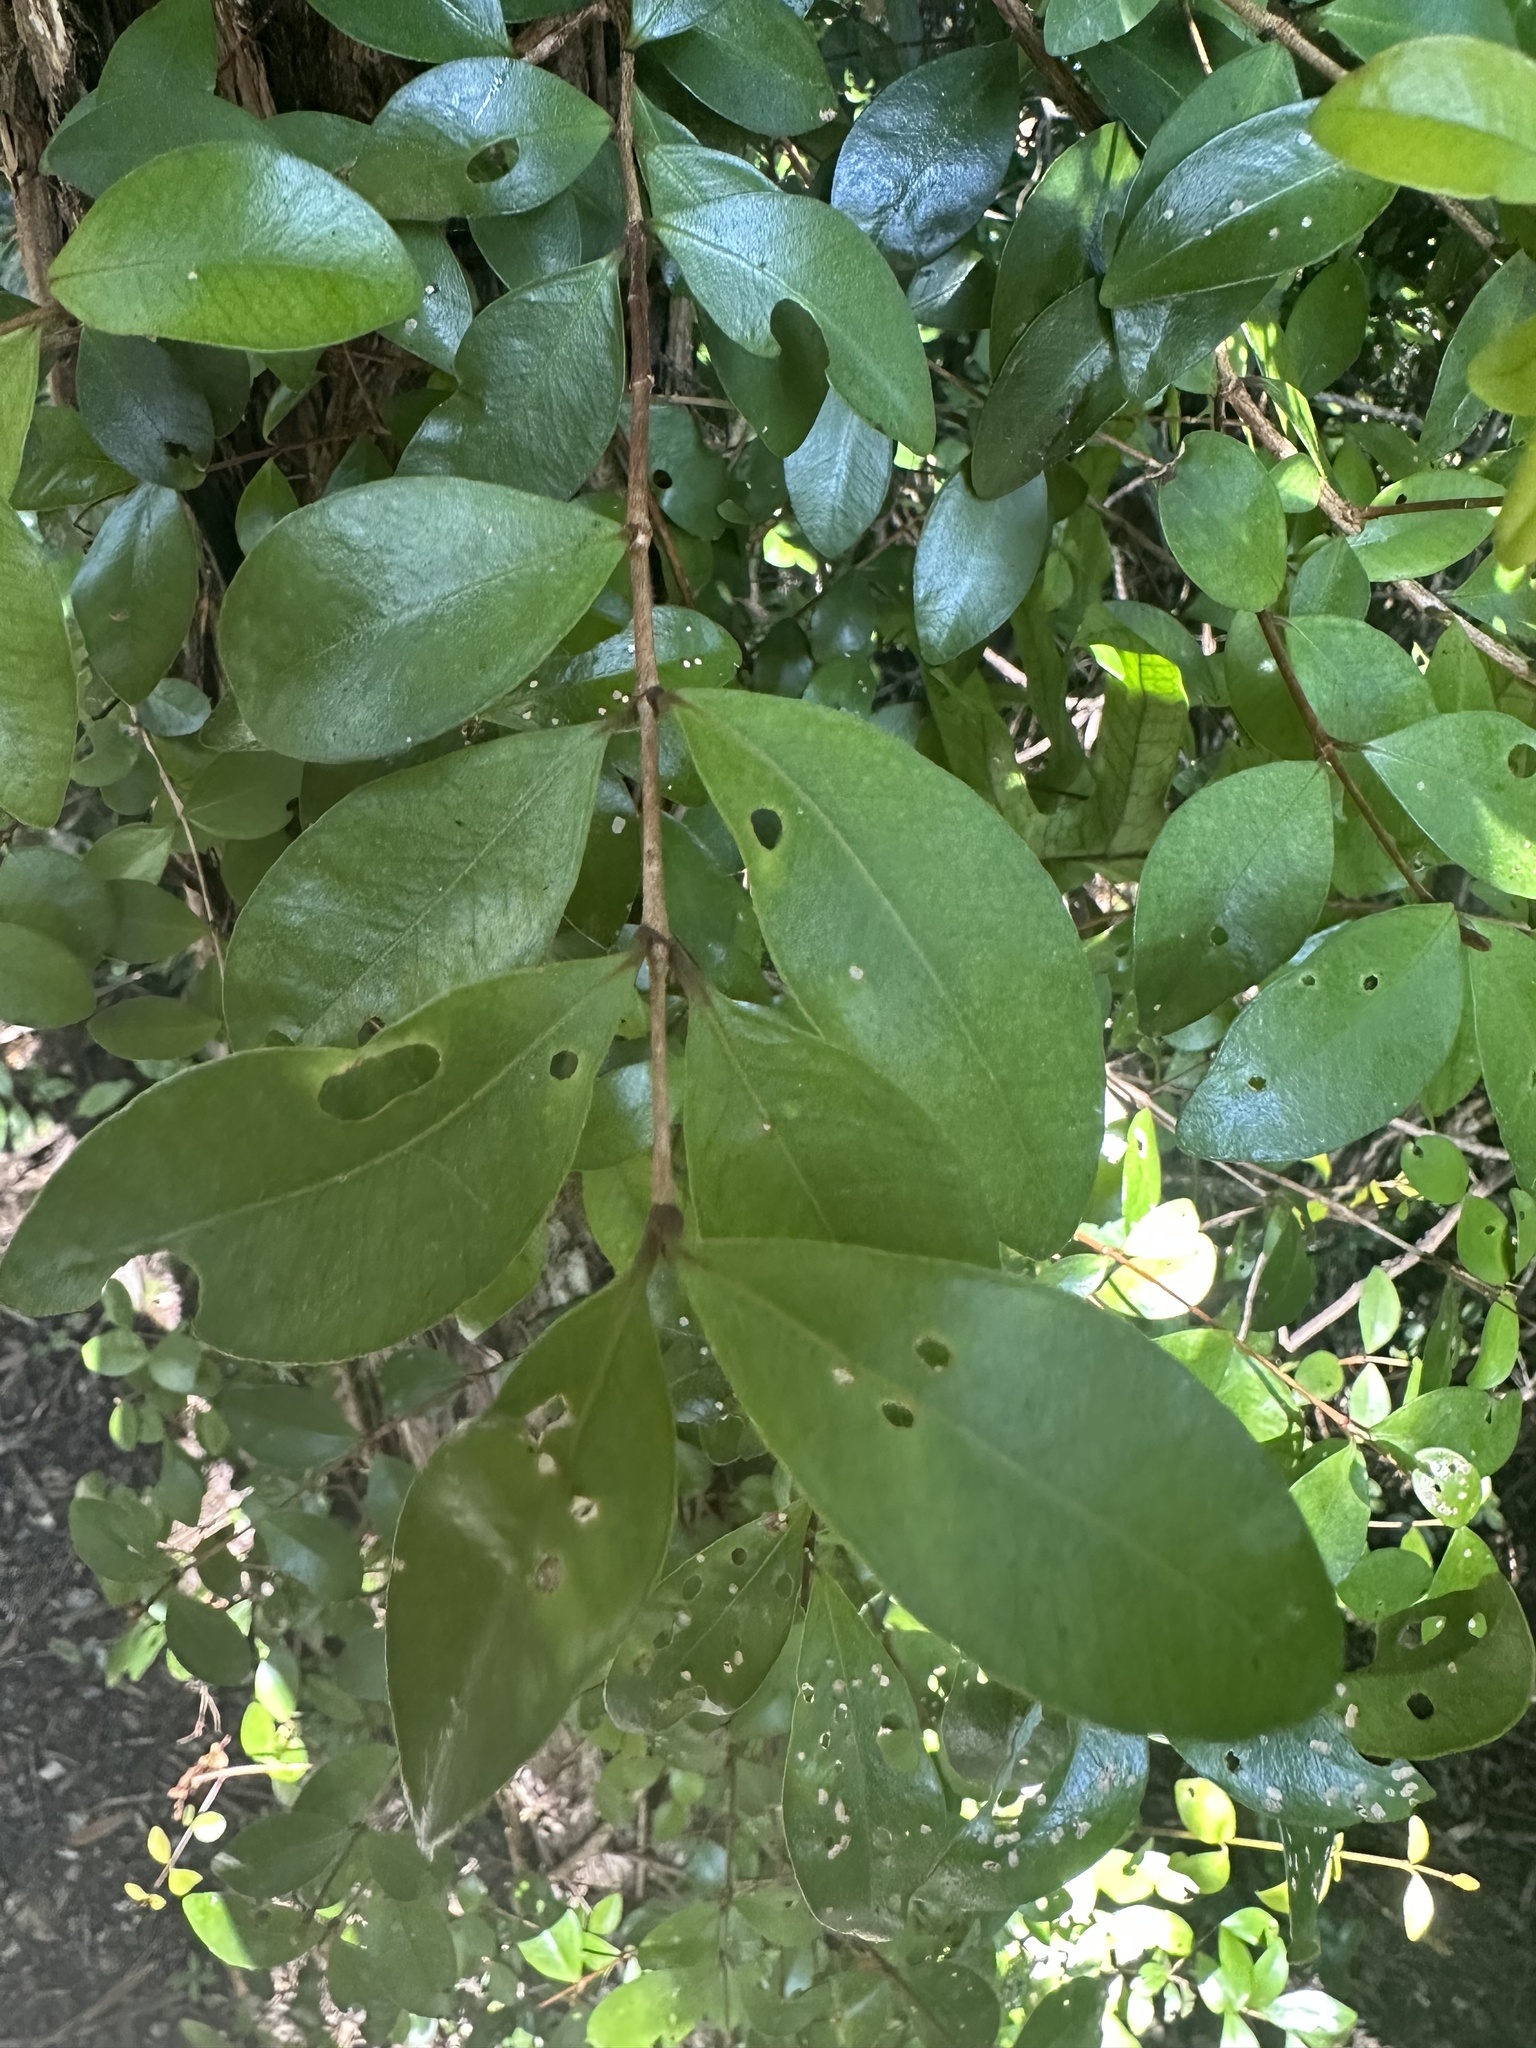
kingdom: Plantae
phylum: Tracheophyta
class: Magnoliopsida
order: Myrtales
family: Myrtaceae
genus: Metrosideros
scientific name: Metrosideros fulgens
